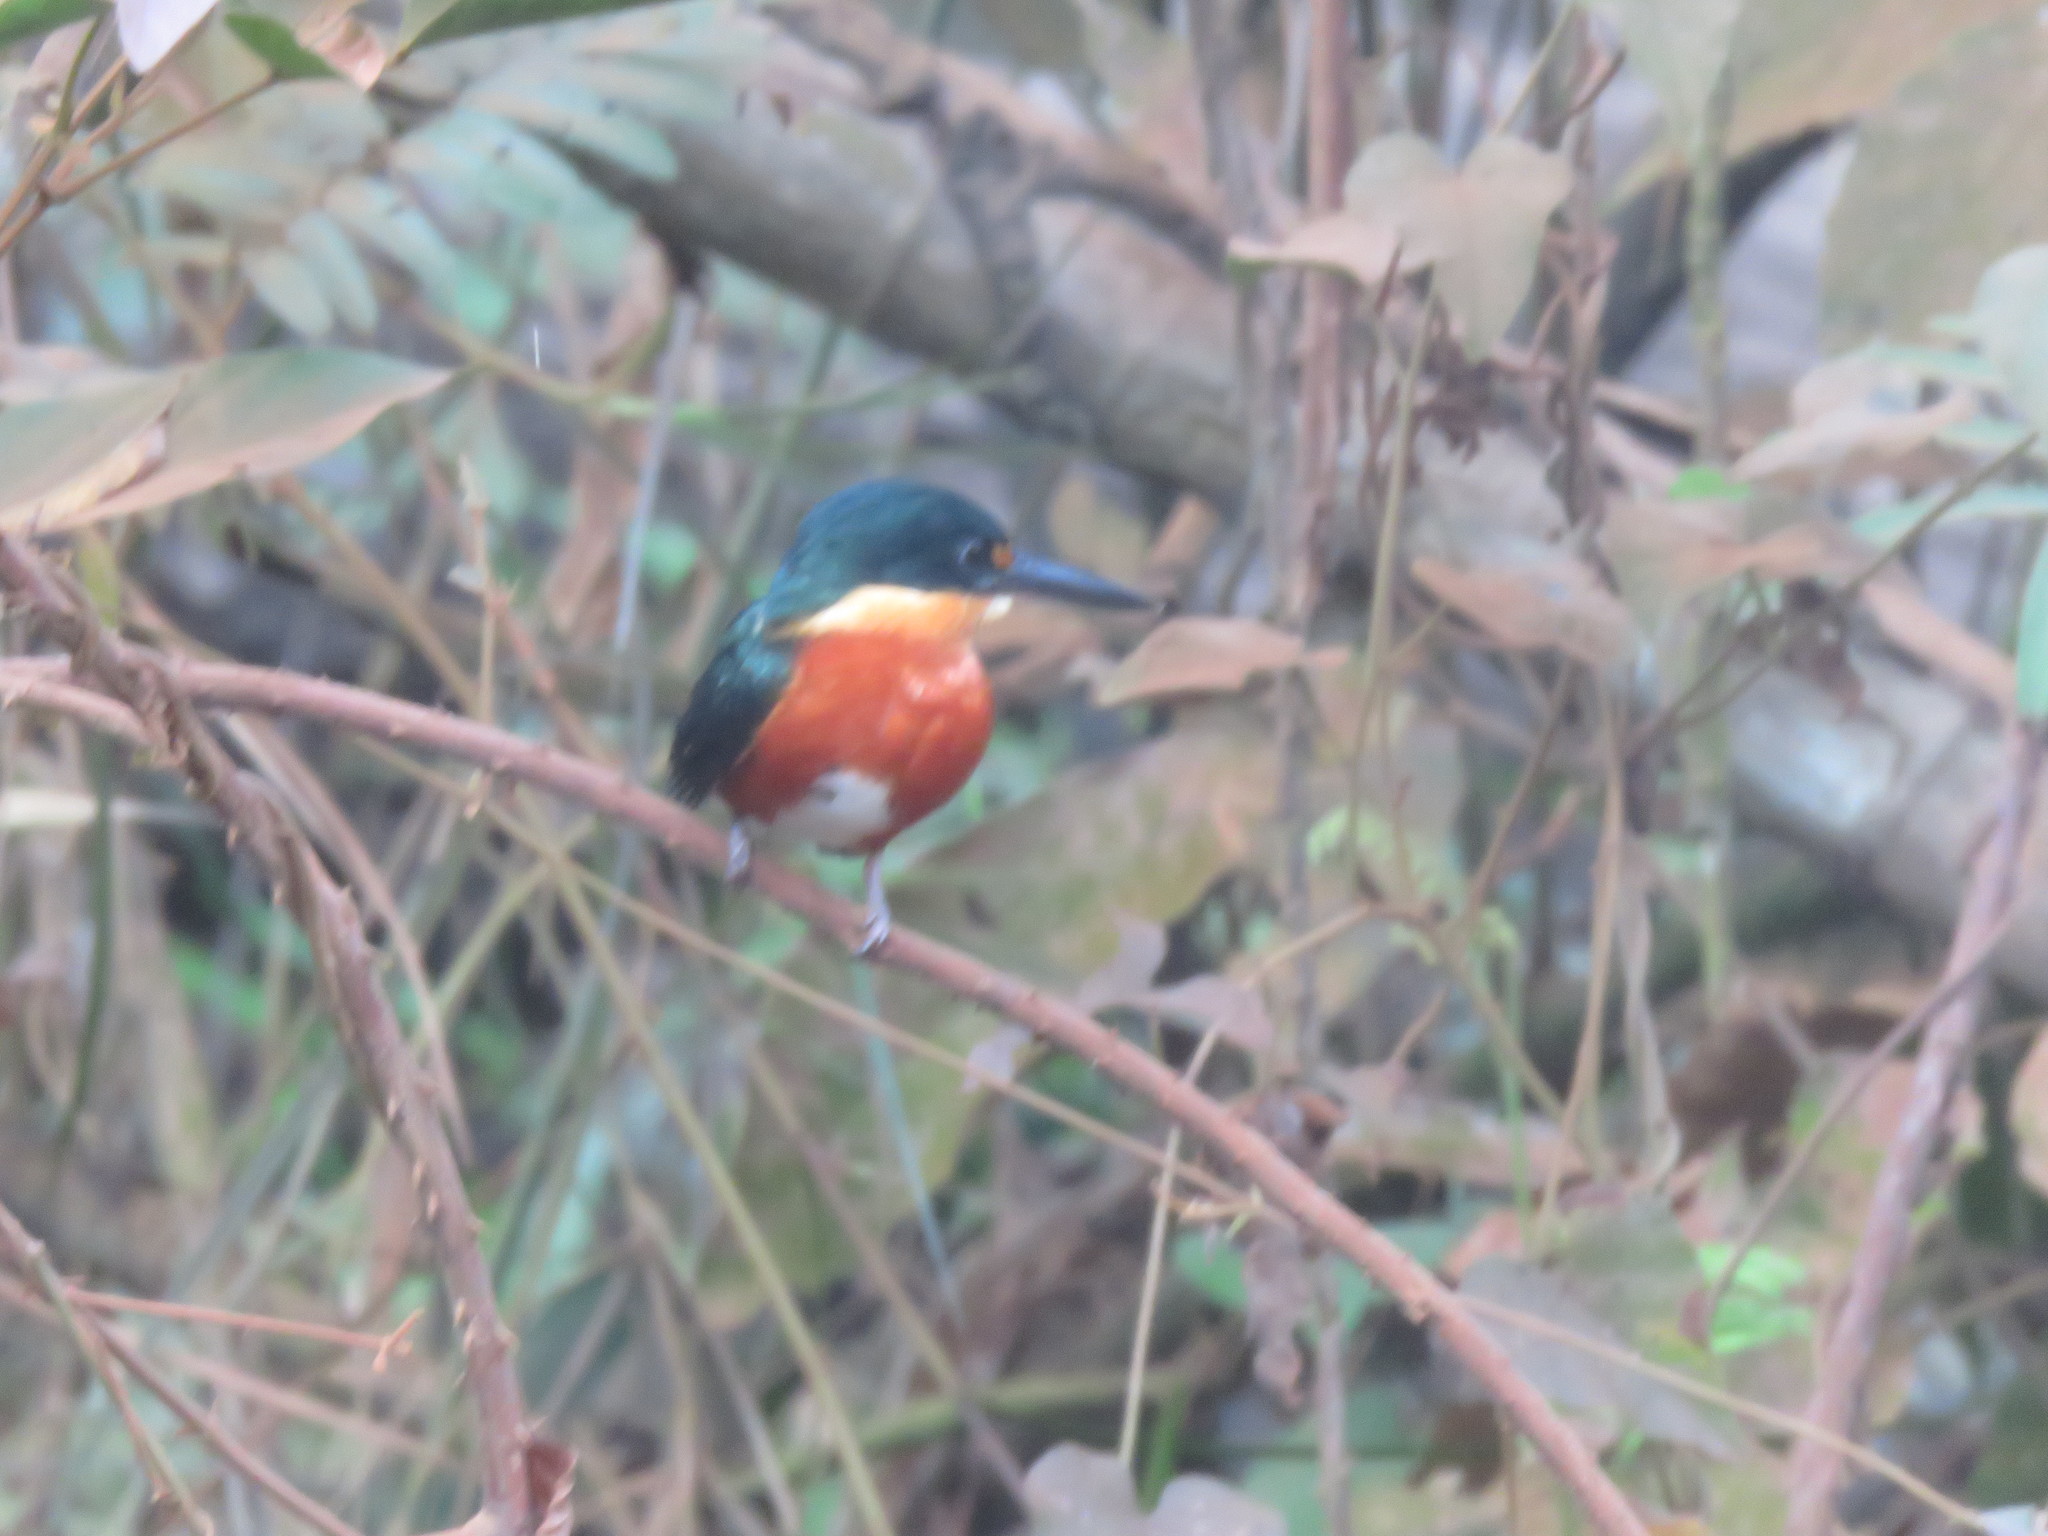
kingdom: Animalia
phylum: Chordata
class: Aves
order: Coraciiformes
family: Alcedinidae
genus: Chloroceryle
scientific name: Chloroceryle aenea
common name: American pygmy kingfisher
